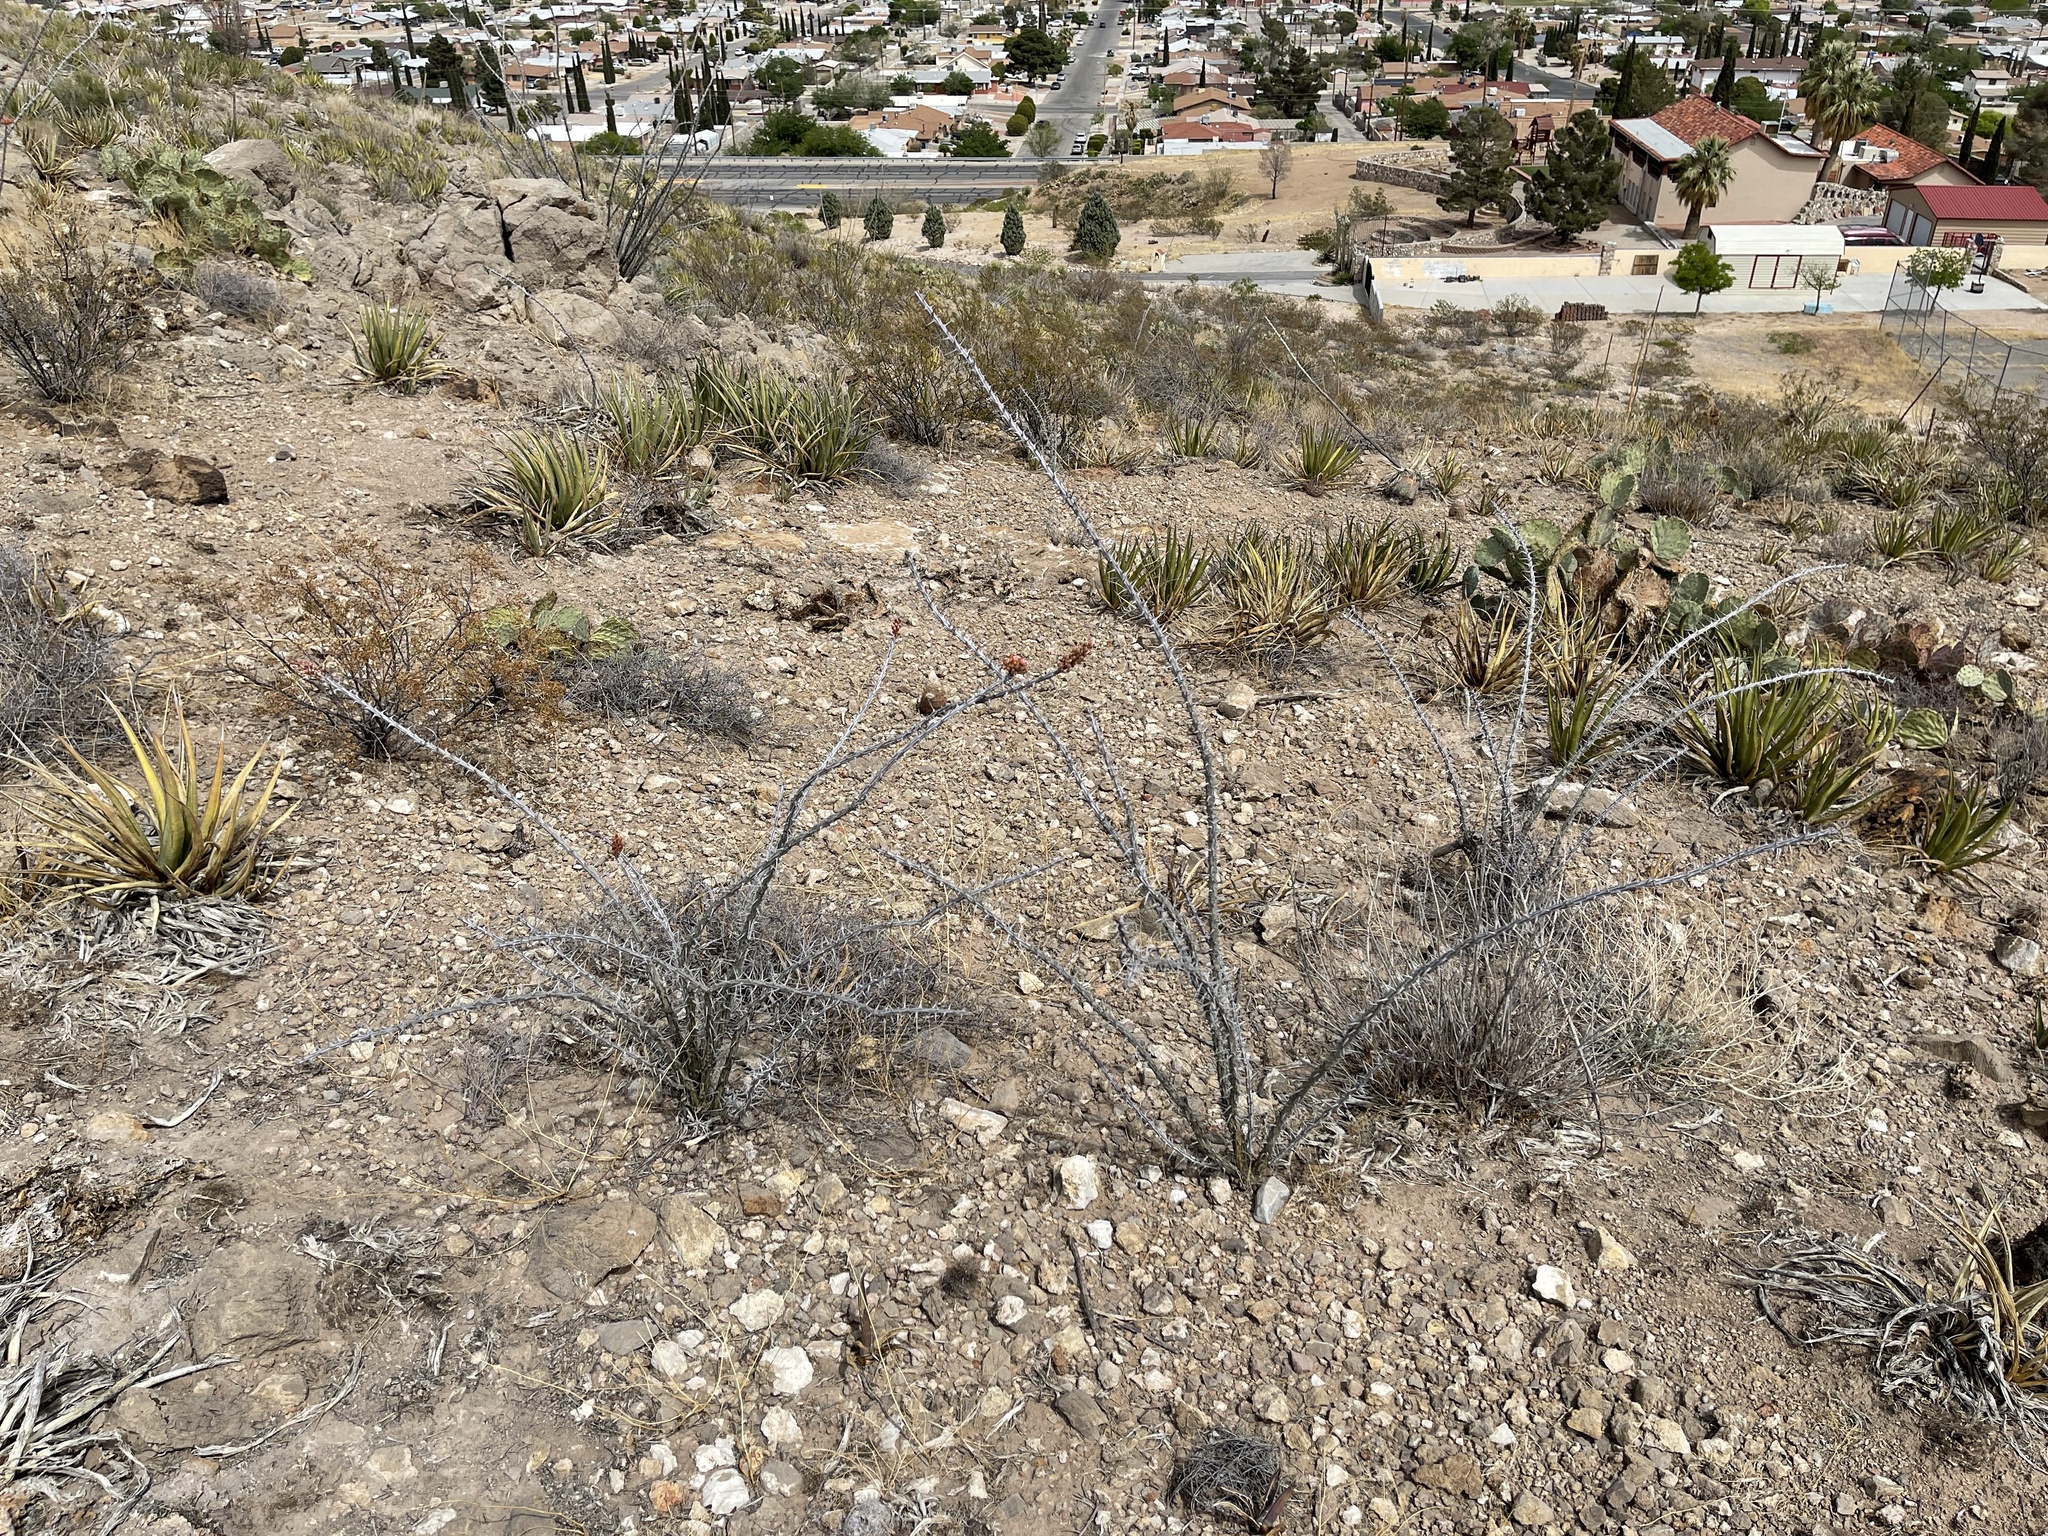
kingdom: Plantae
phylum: Tracheophyta
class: Magnoliopsida
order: Ericales
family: Fouquieriaceae
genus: Fouquieria
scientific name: Fouquieria splendens
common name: Vine-cactus
